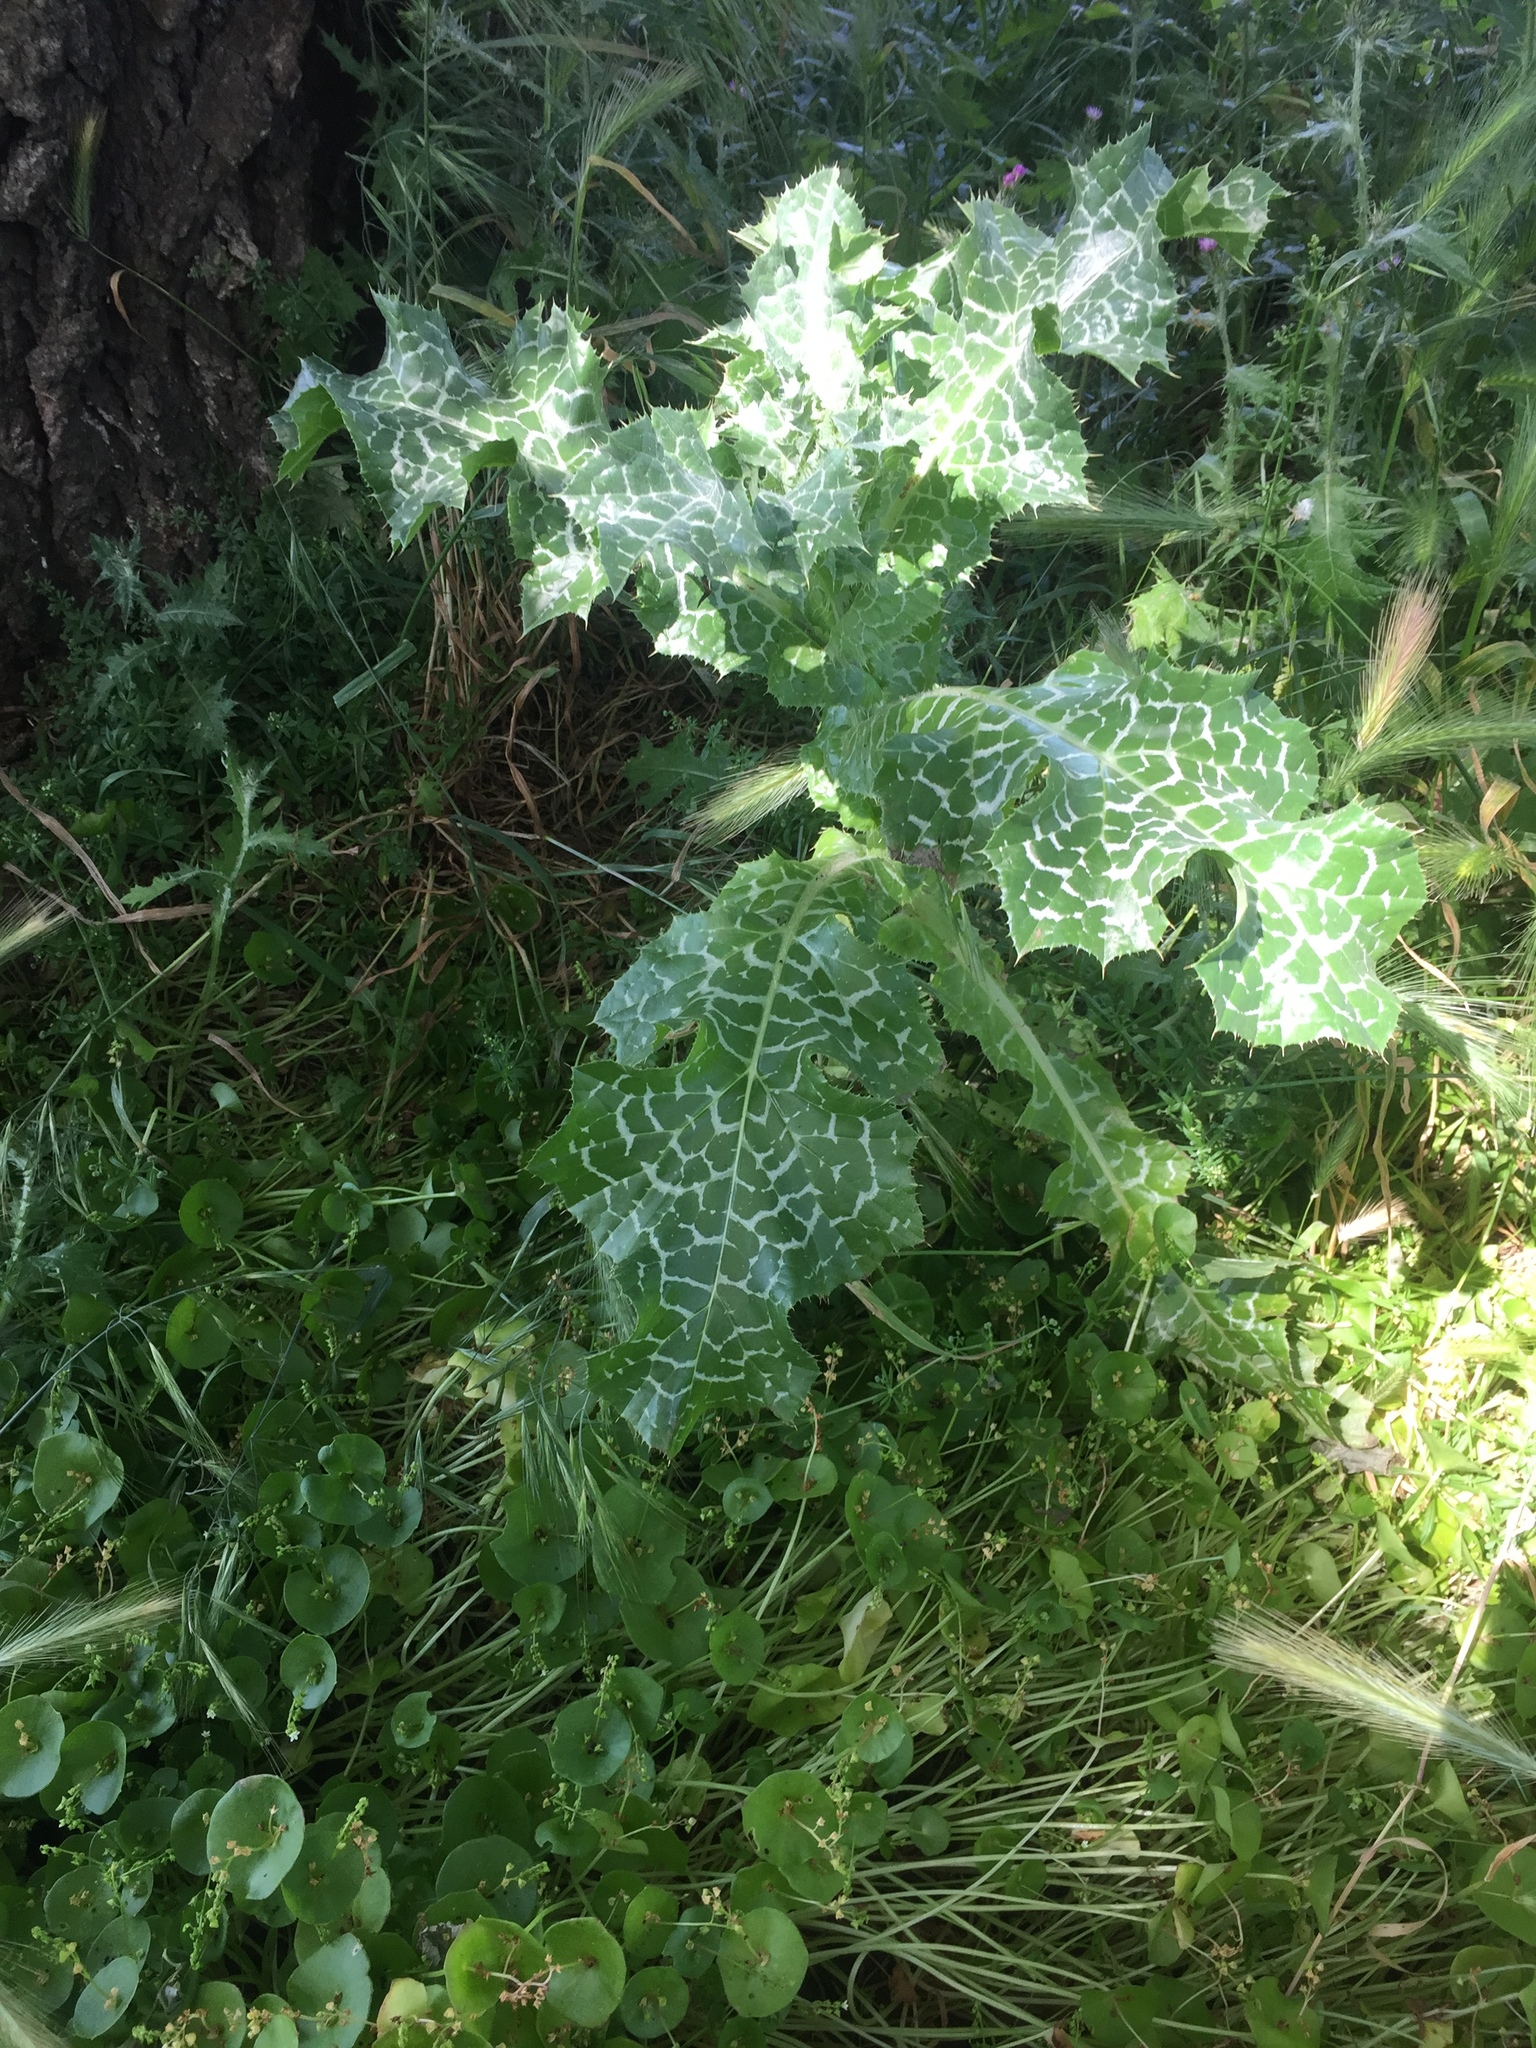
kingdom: Plantae
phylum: Tracheophyta
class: Magnoliopsida
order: Asterales
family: Asteraceae
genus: Silybum
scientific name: Silybum marianum
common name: Milk thistle
